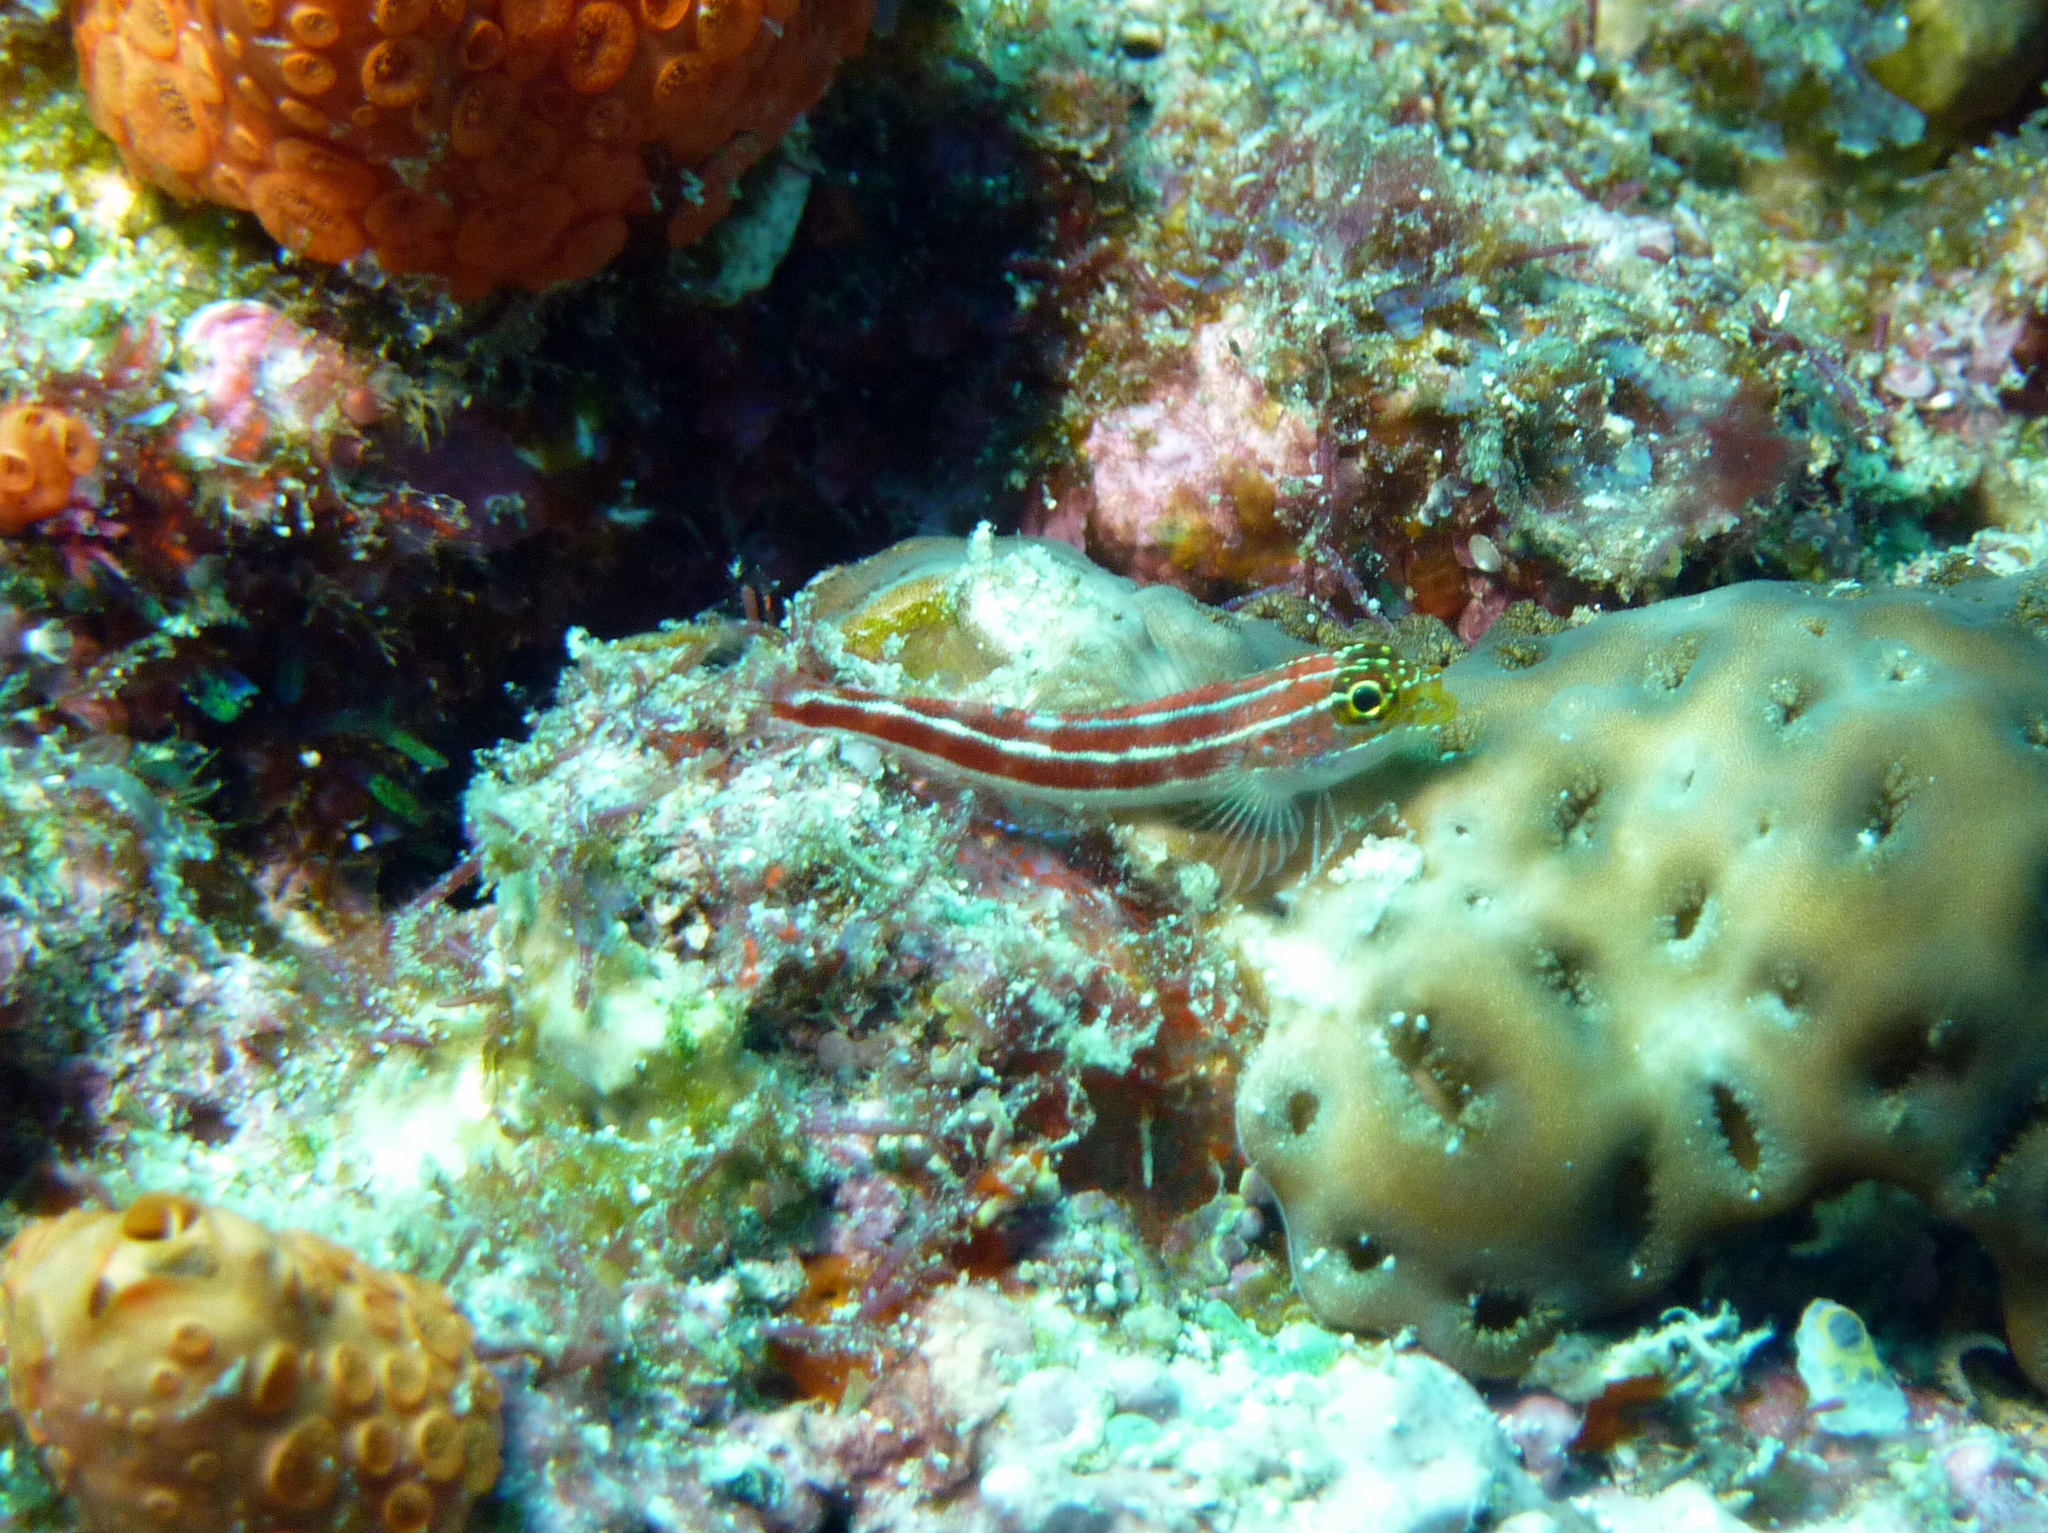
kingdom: Animalia
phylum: Chordata
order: Perciformes
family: Tripterygiidae
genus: Helcogramma
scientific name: Helcogramma striata
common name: Striped threefin
